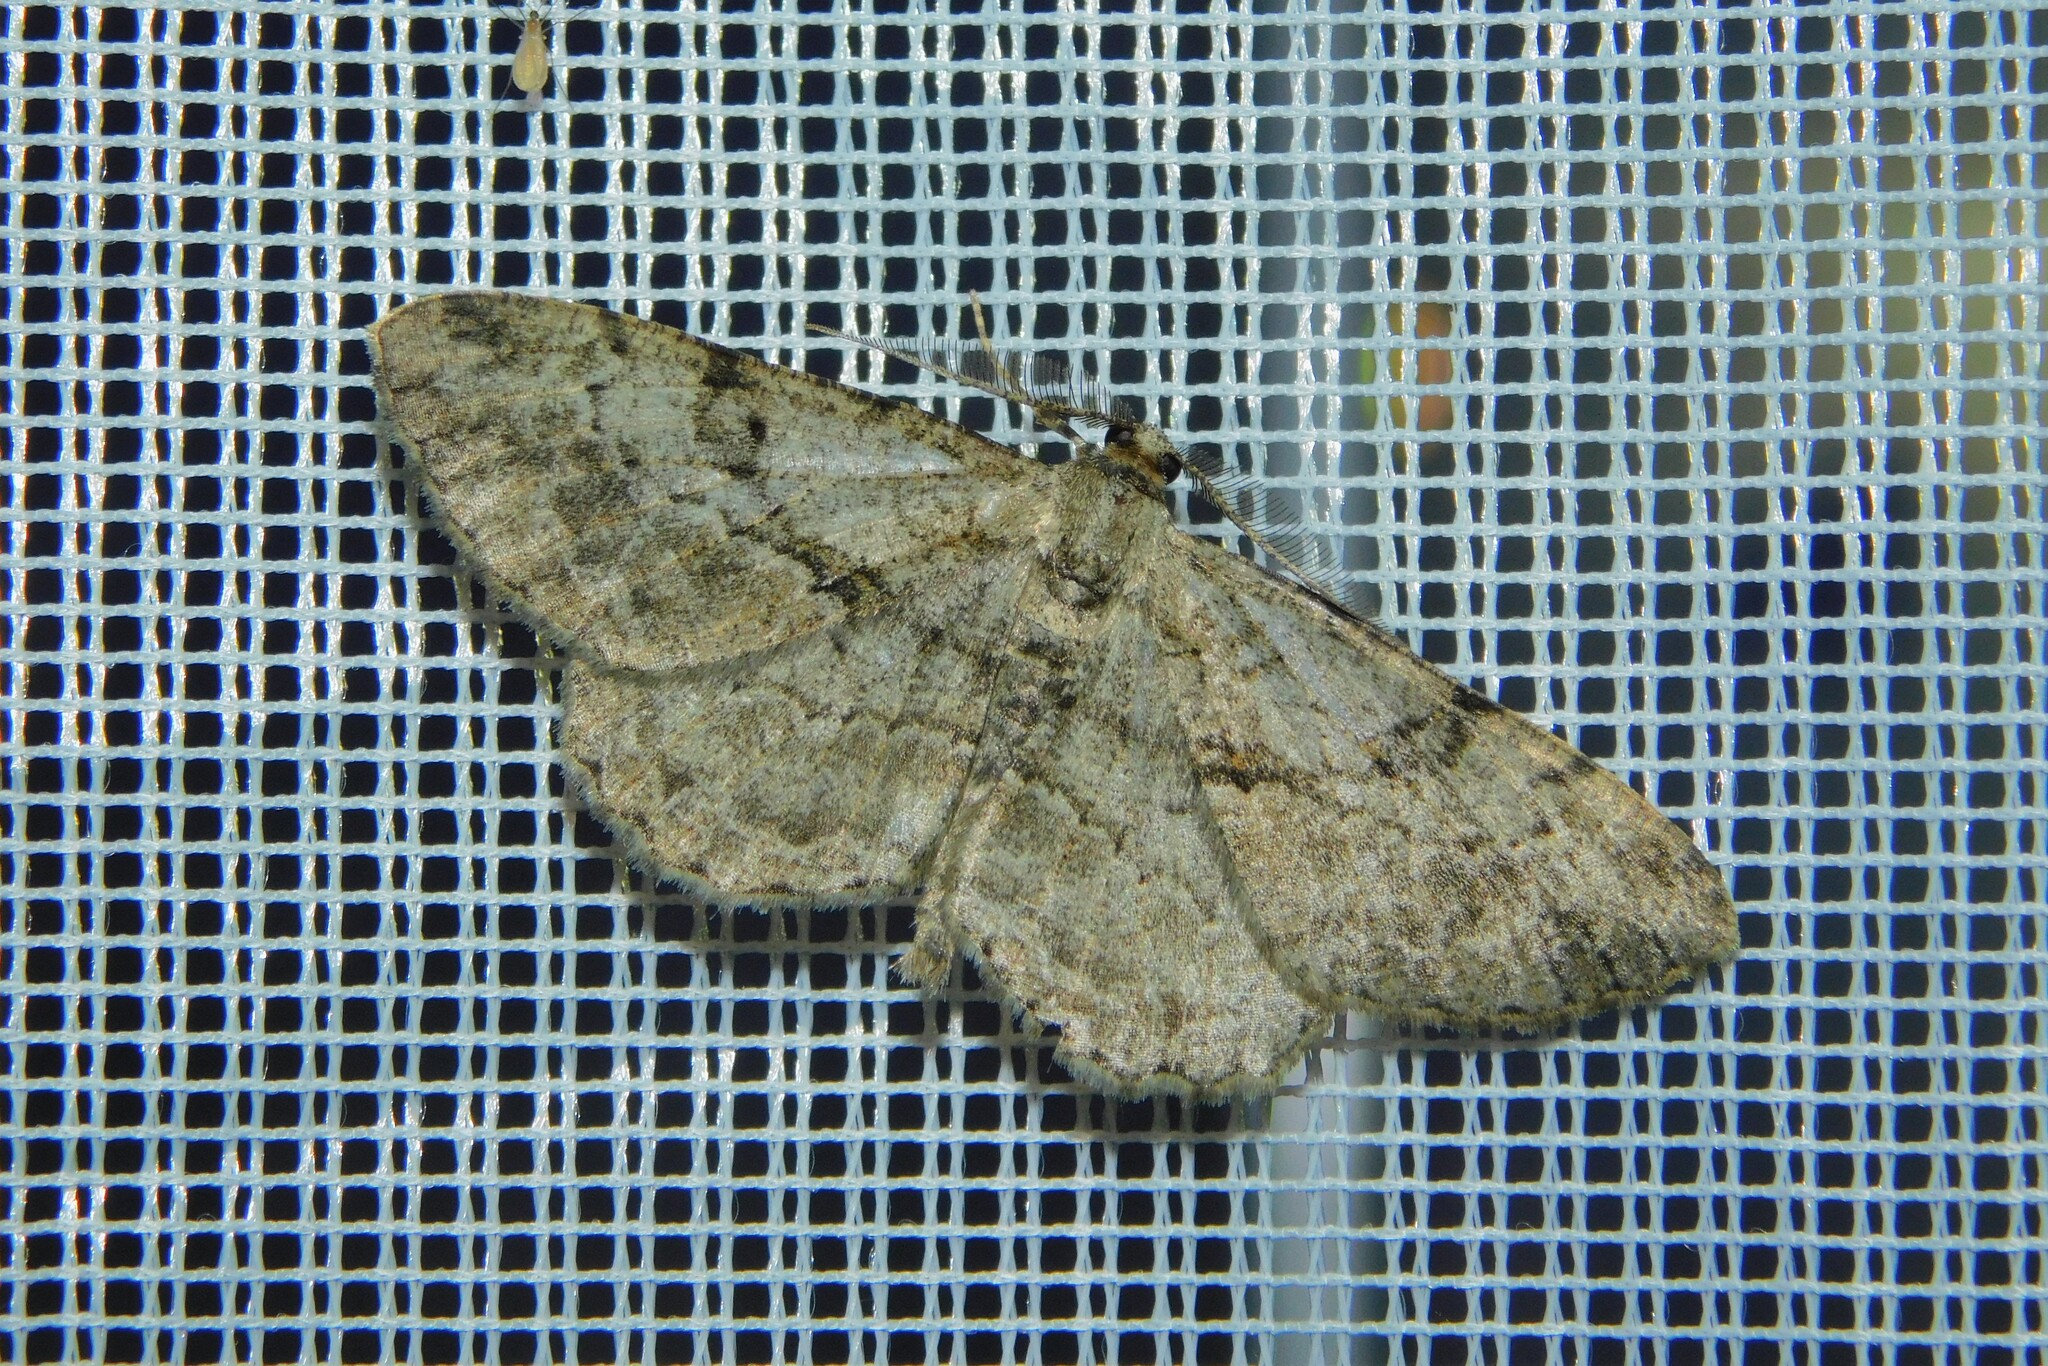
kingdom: Animalia
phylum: Arthropoda
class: Insecta
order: Lepidoptera
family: Geometridae
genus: Peribatodes
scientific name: Peribatodes rhomboidaria
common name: Willow beauty
